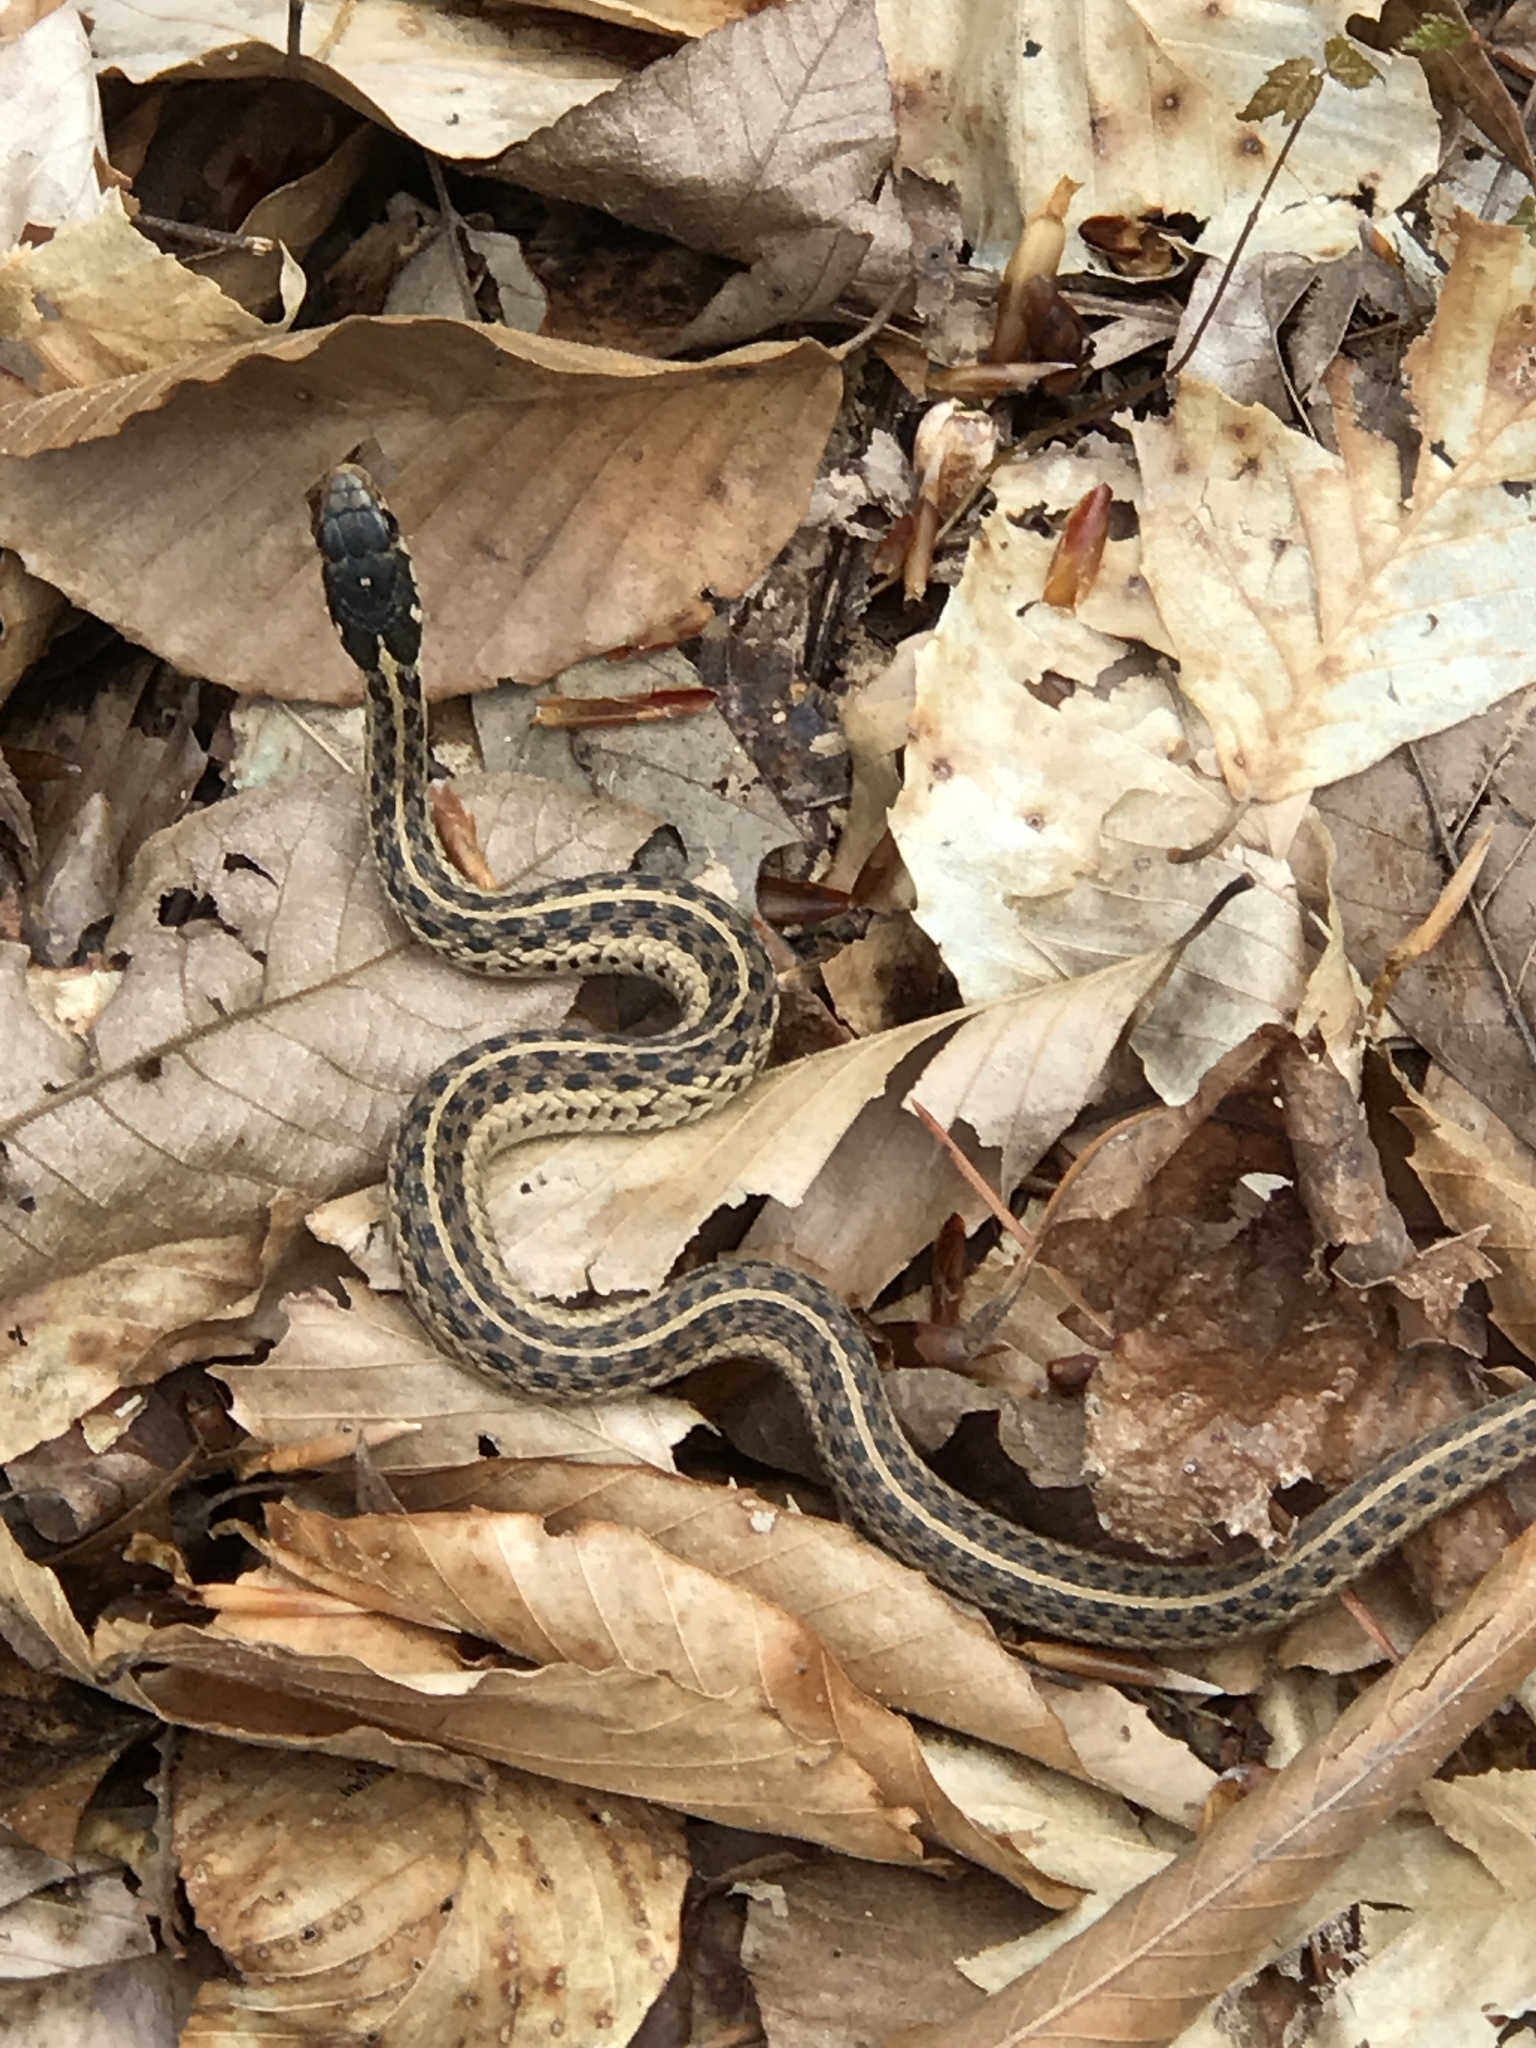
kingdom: Animalia
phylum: Chordata
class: Squamata
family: Colubridae
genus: Thamnophis
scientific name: Thamnophis sirtalis
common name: Common garter snake
